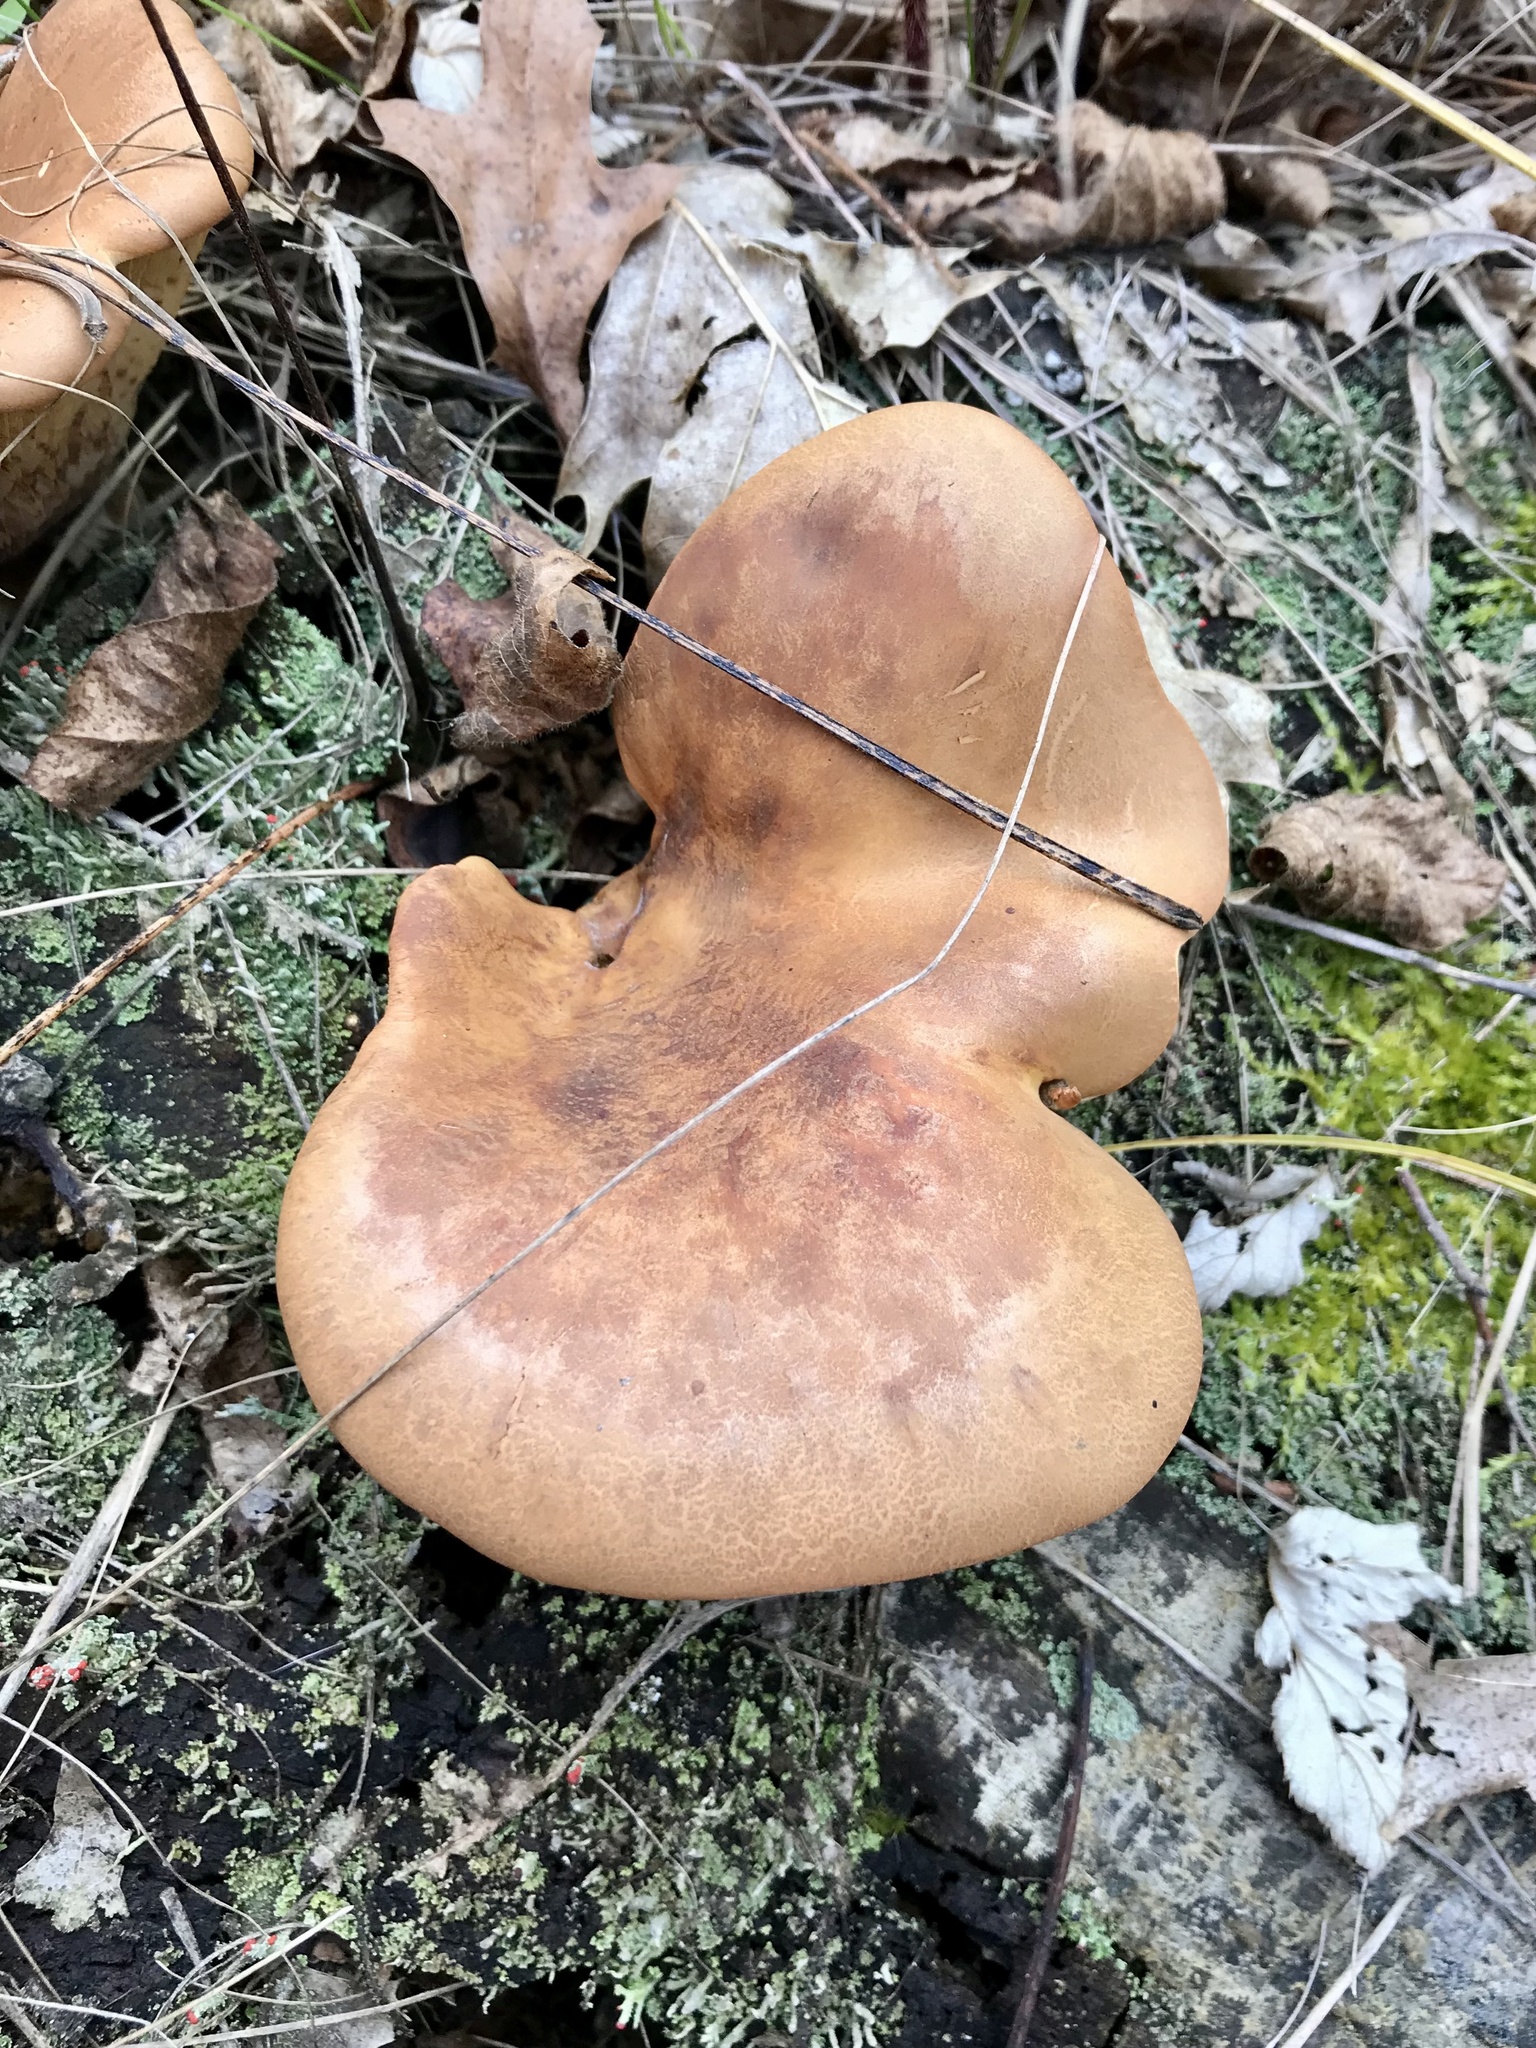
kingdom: Fungi
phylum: Basidiomycota
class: Agaricomycetes
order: Boletales
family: Tapinellaceae
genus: Tapinella
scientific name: Tapinella atrotomentosa
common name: Velvet rollrim
